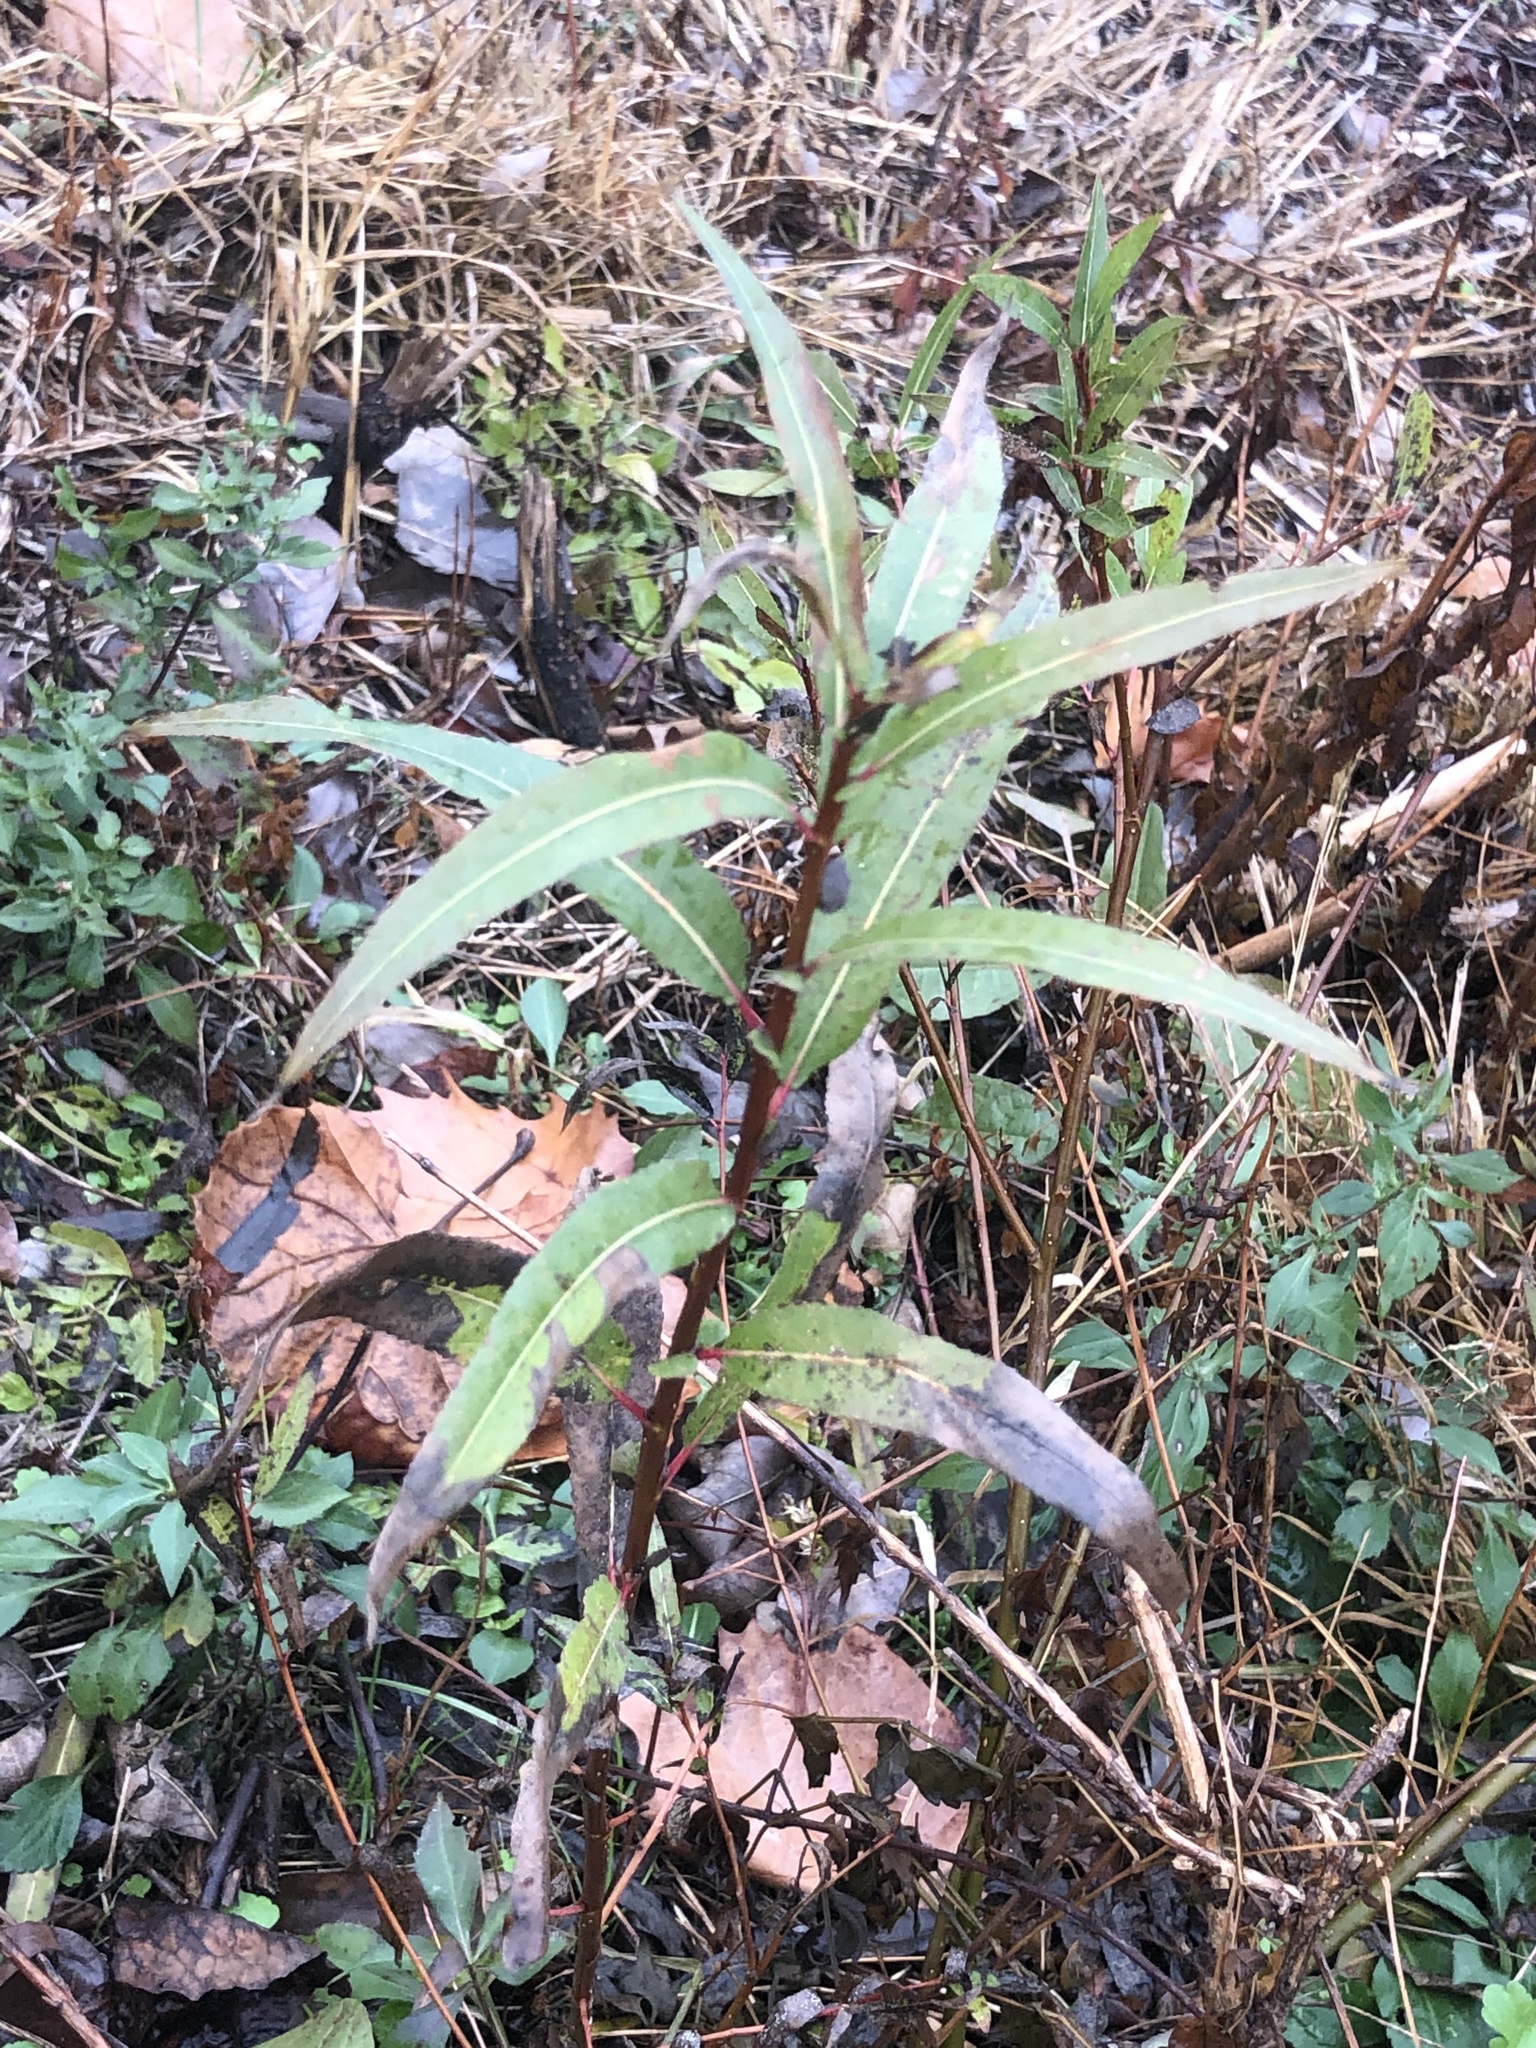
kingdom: Plantae
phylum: Tracheophyta
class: Magnoliopsida
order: Malpighiales
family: Salicaceae
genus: Salix
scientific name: Salix nigra
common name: Black willow
